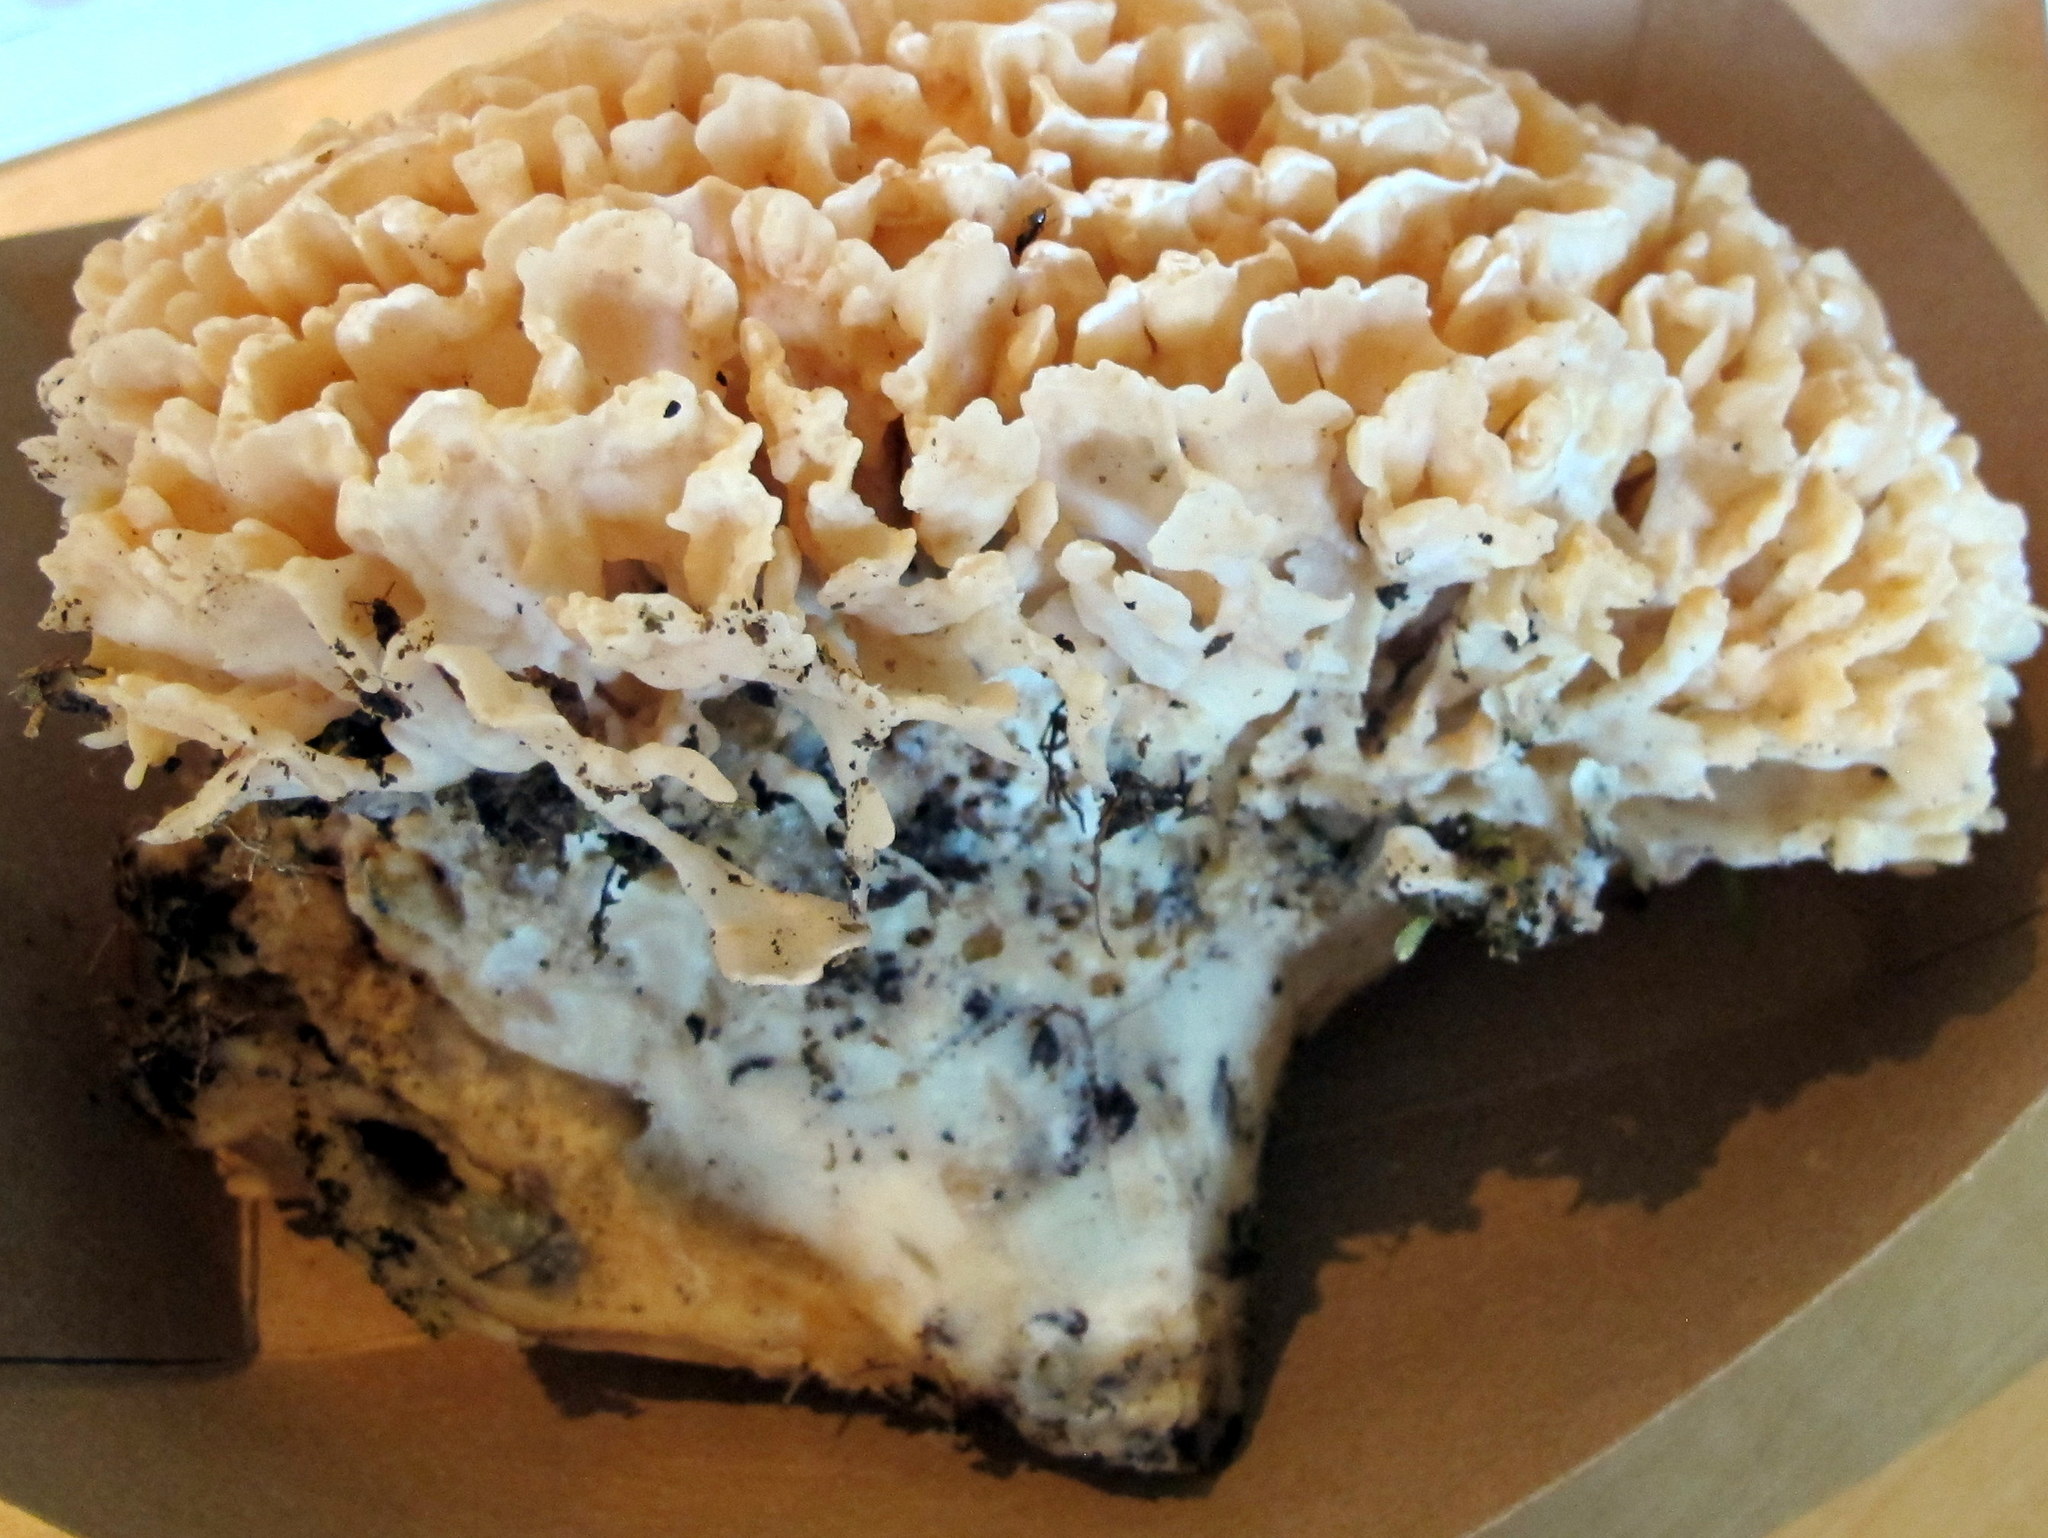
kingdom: Fungi
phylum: Basidiomycota
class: Agaricomycetes
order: Polyporales
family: Sparassidaceae
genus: Sparassis
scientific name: Sparassis spathulata
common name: Eastern cauliflower mushroom
